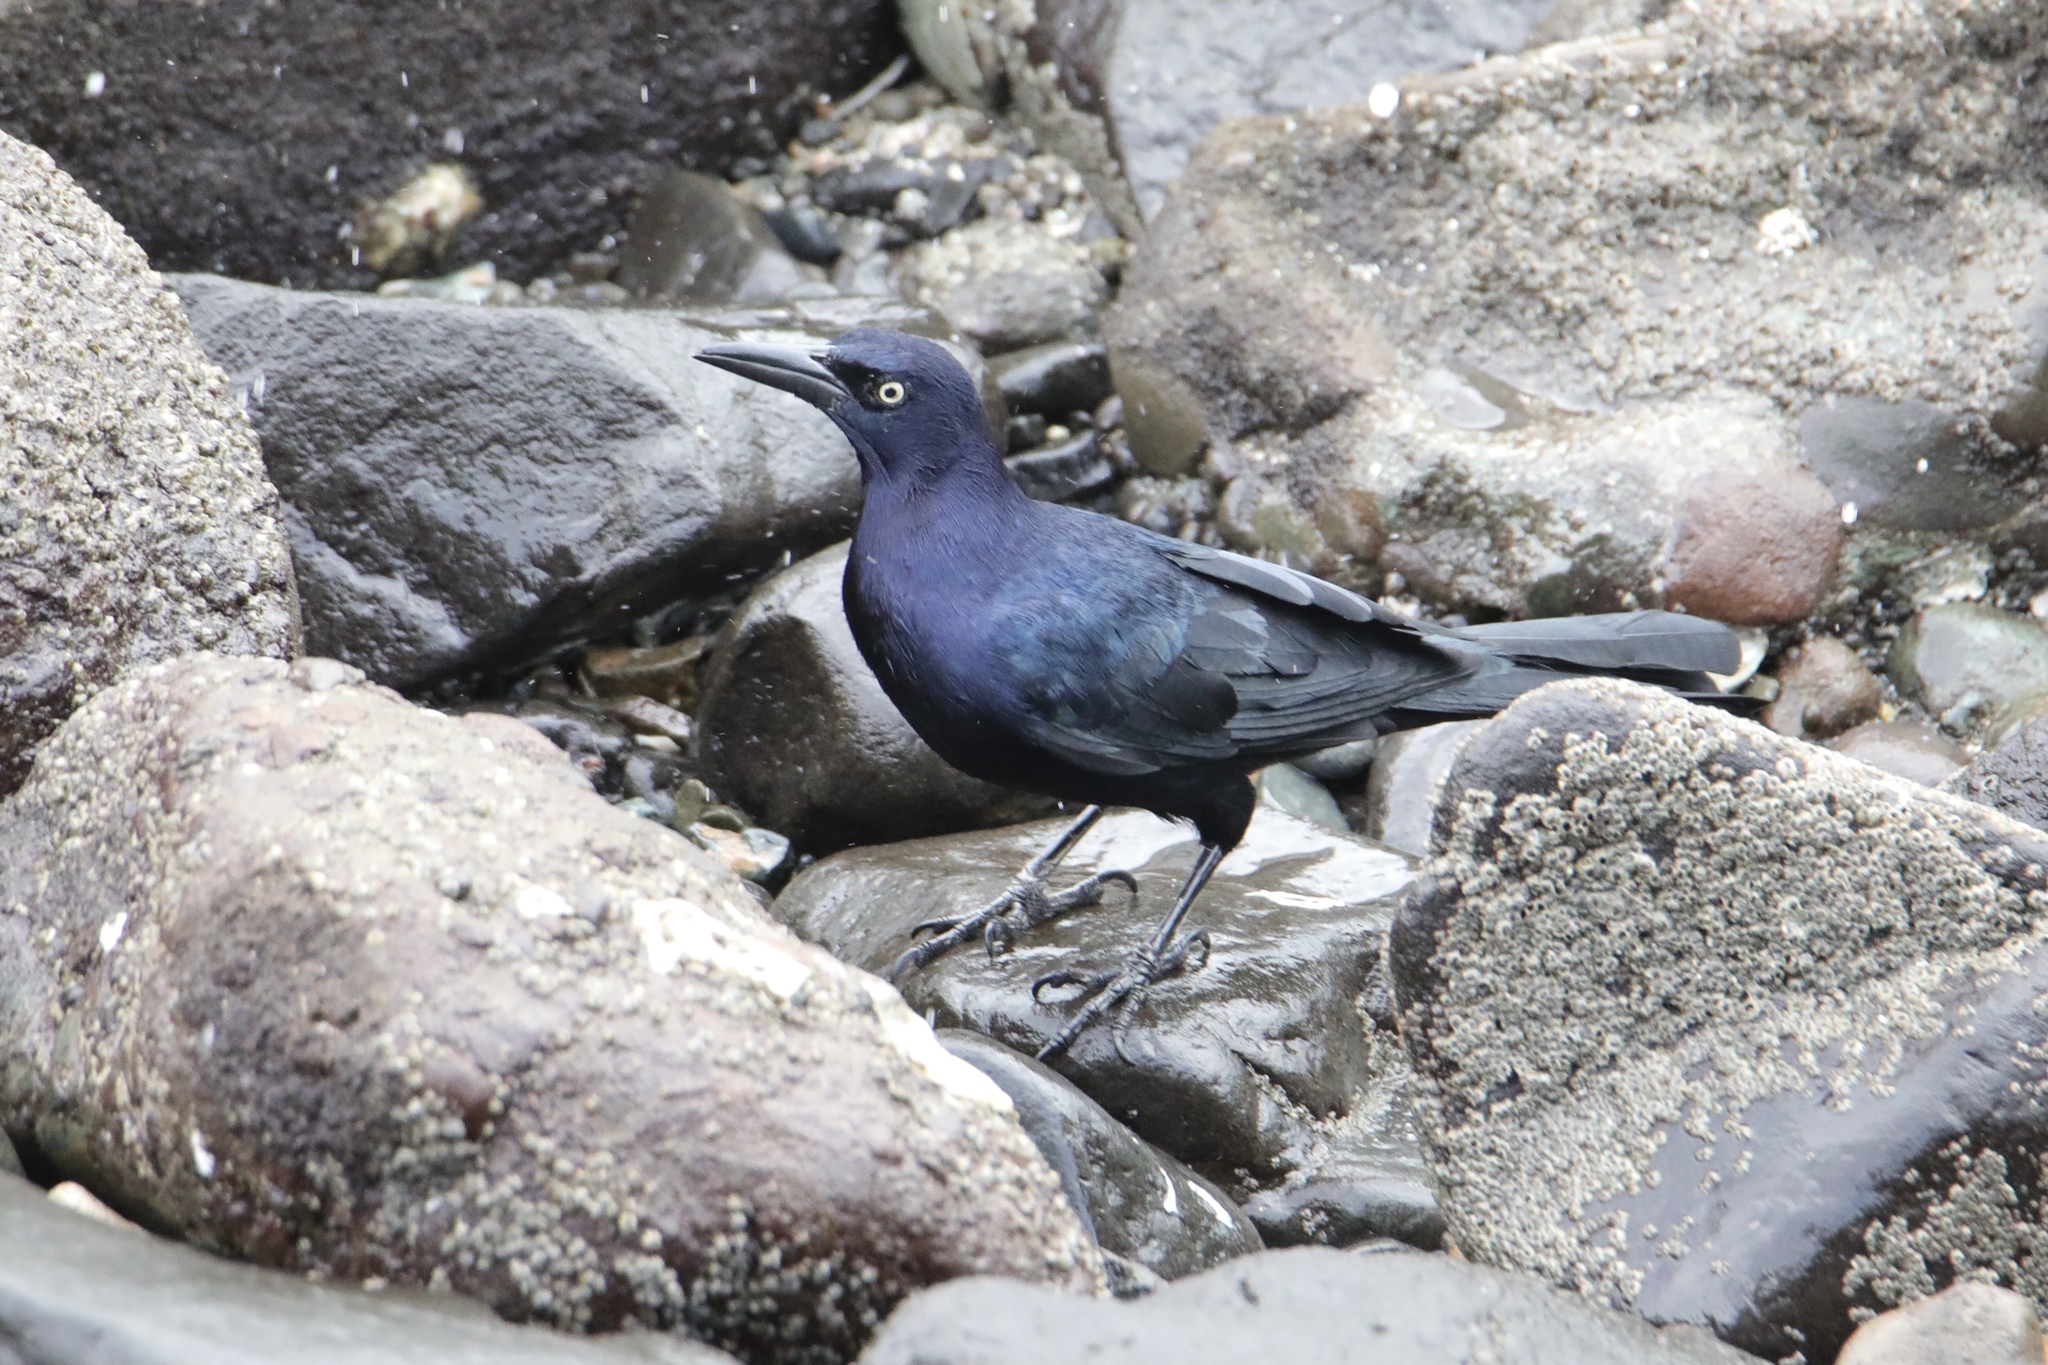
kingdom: Animalia
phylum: Chordata
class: Aves
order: Passeriformes
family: Icteridae
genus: Quiscalus
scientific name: Quiscalus mexicanus
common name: Great-tailed grackle
